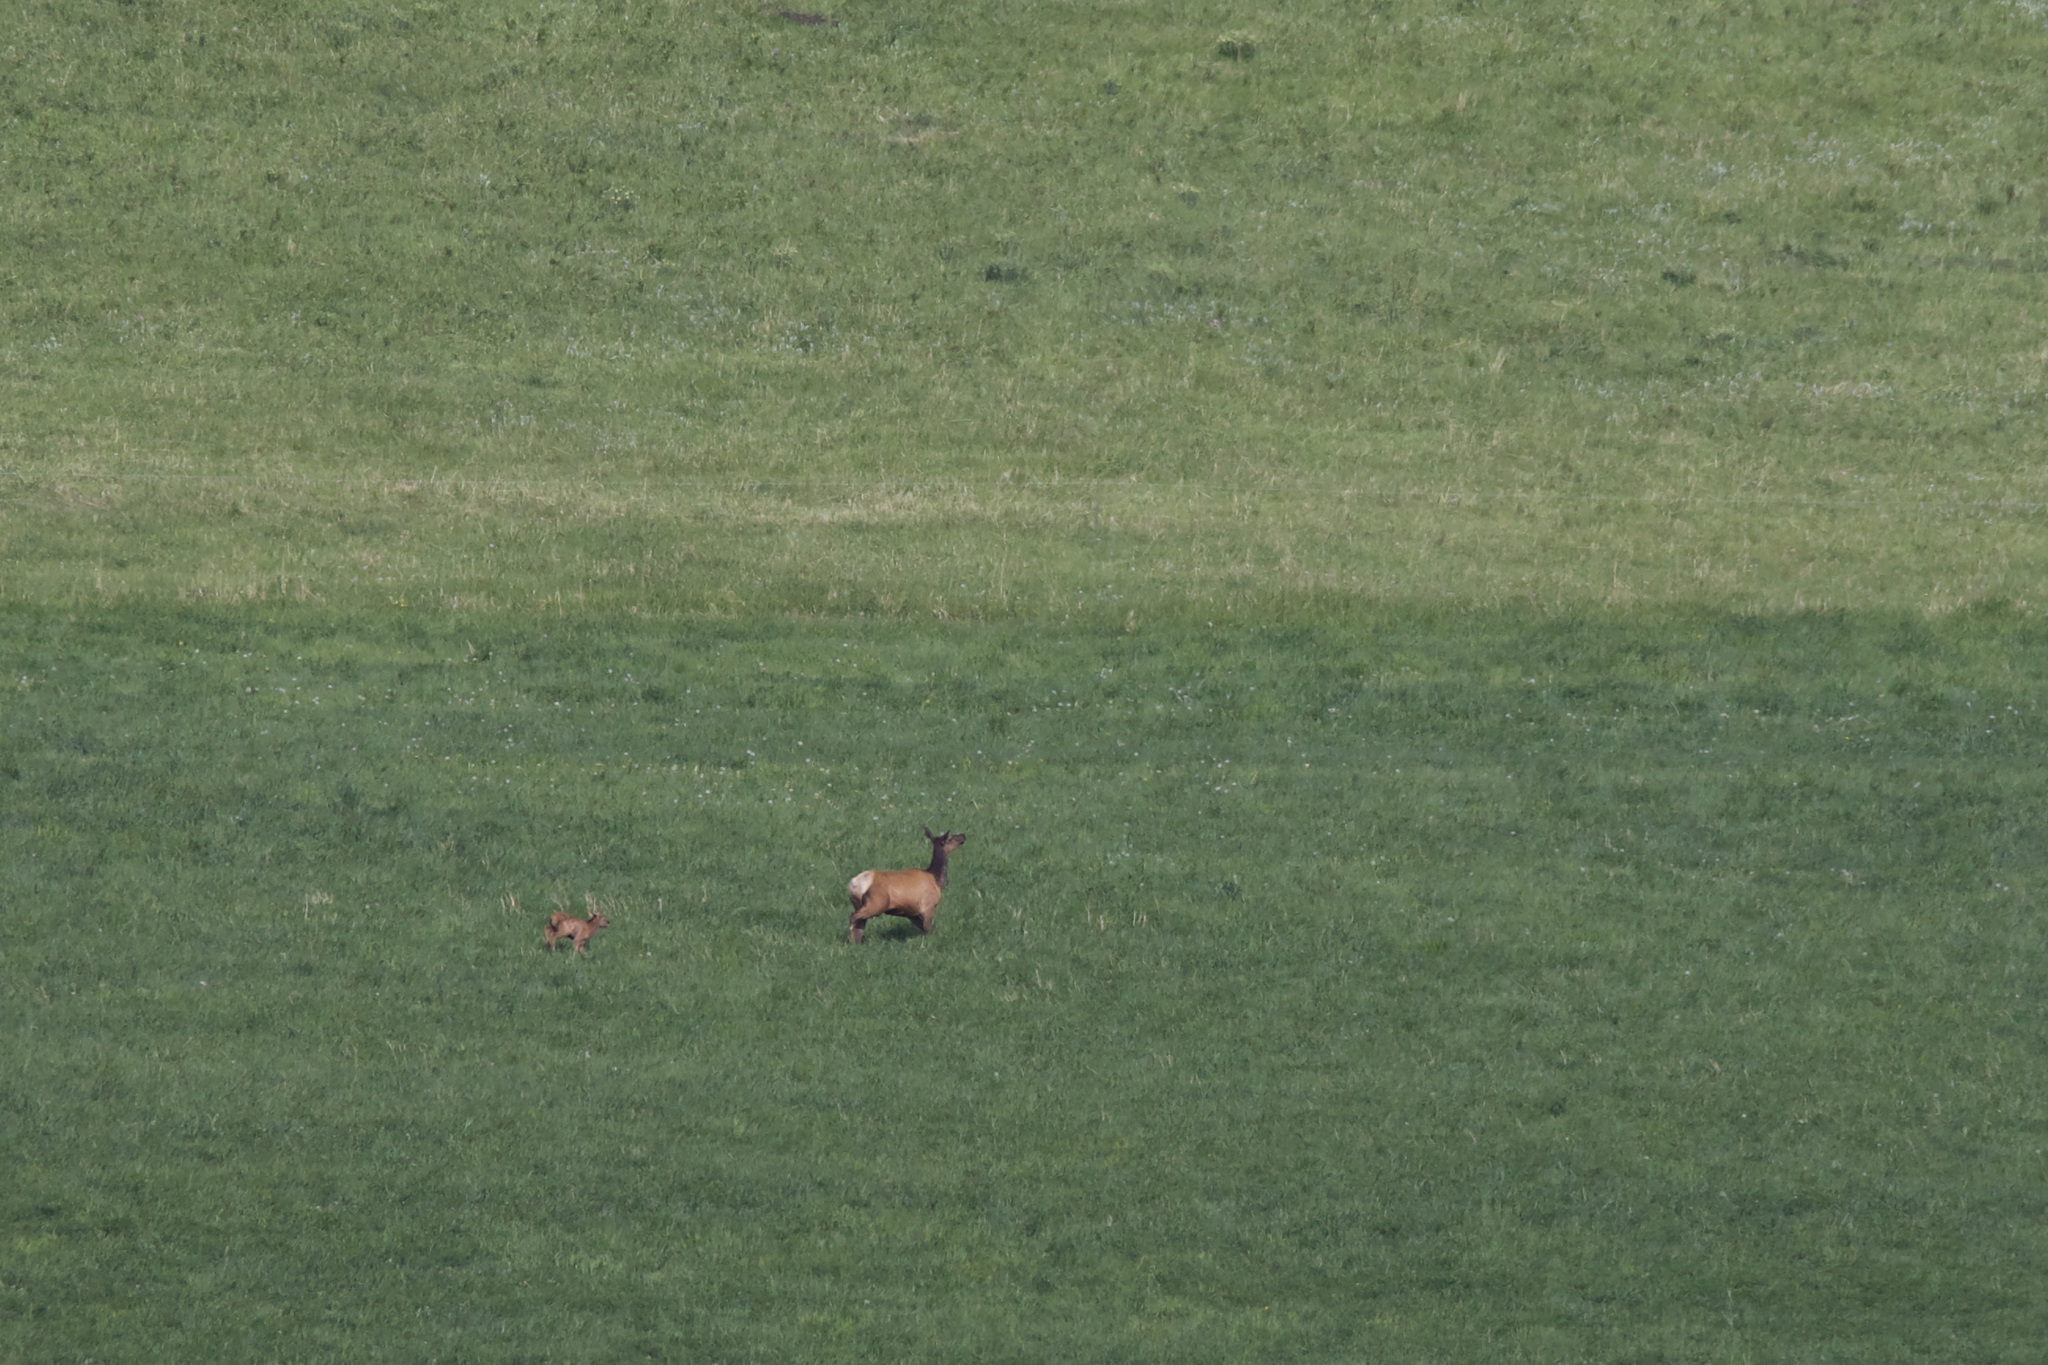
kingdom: Animalia
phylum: Chordata
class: Mammalia
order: Artiodactyla
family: Cervidae
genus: Cervus
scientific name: Cervus elaphus
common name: Red deer
